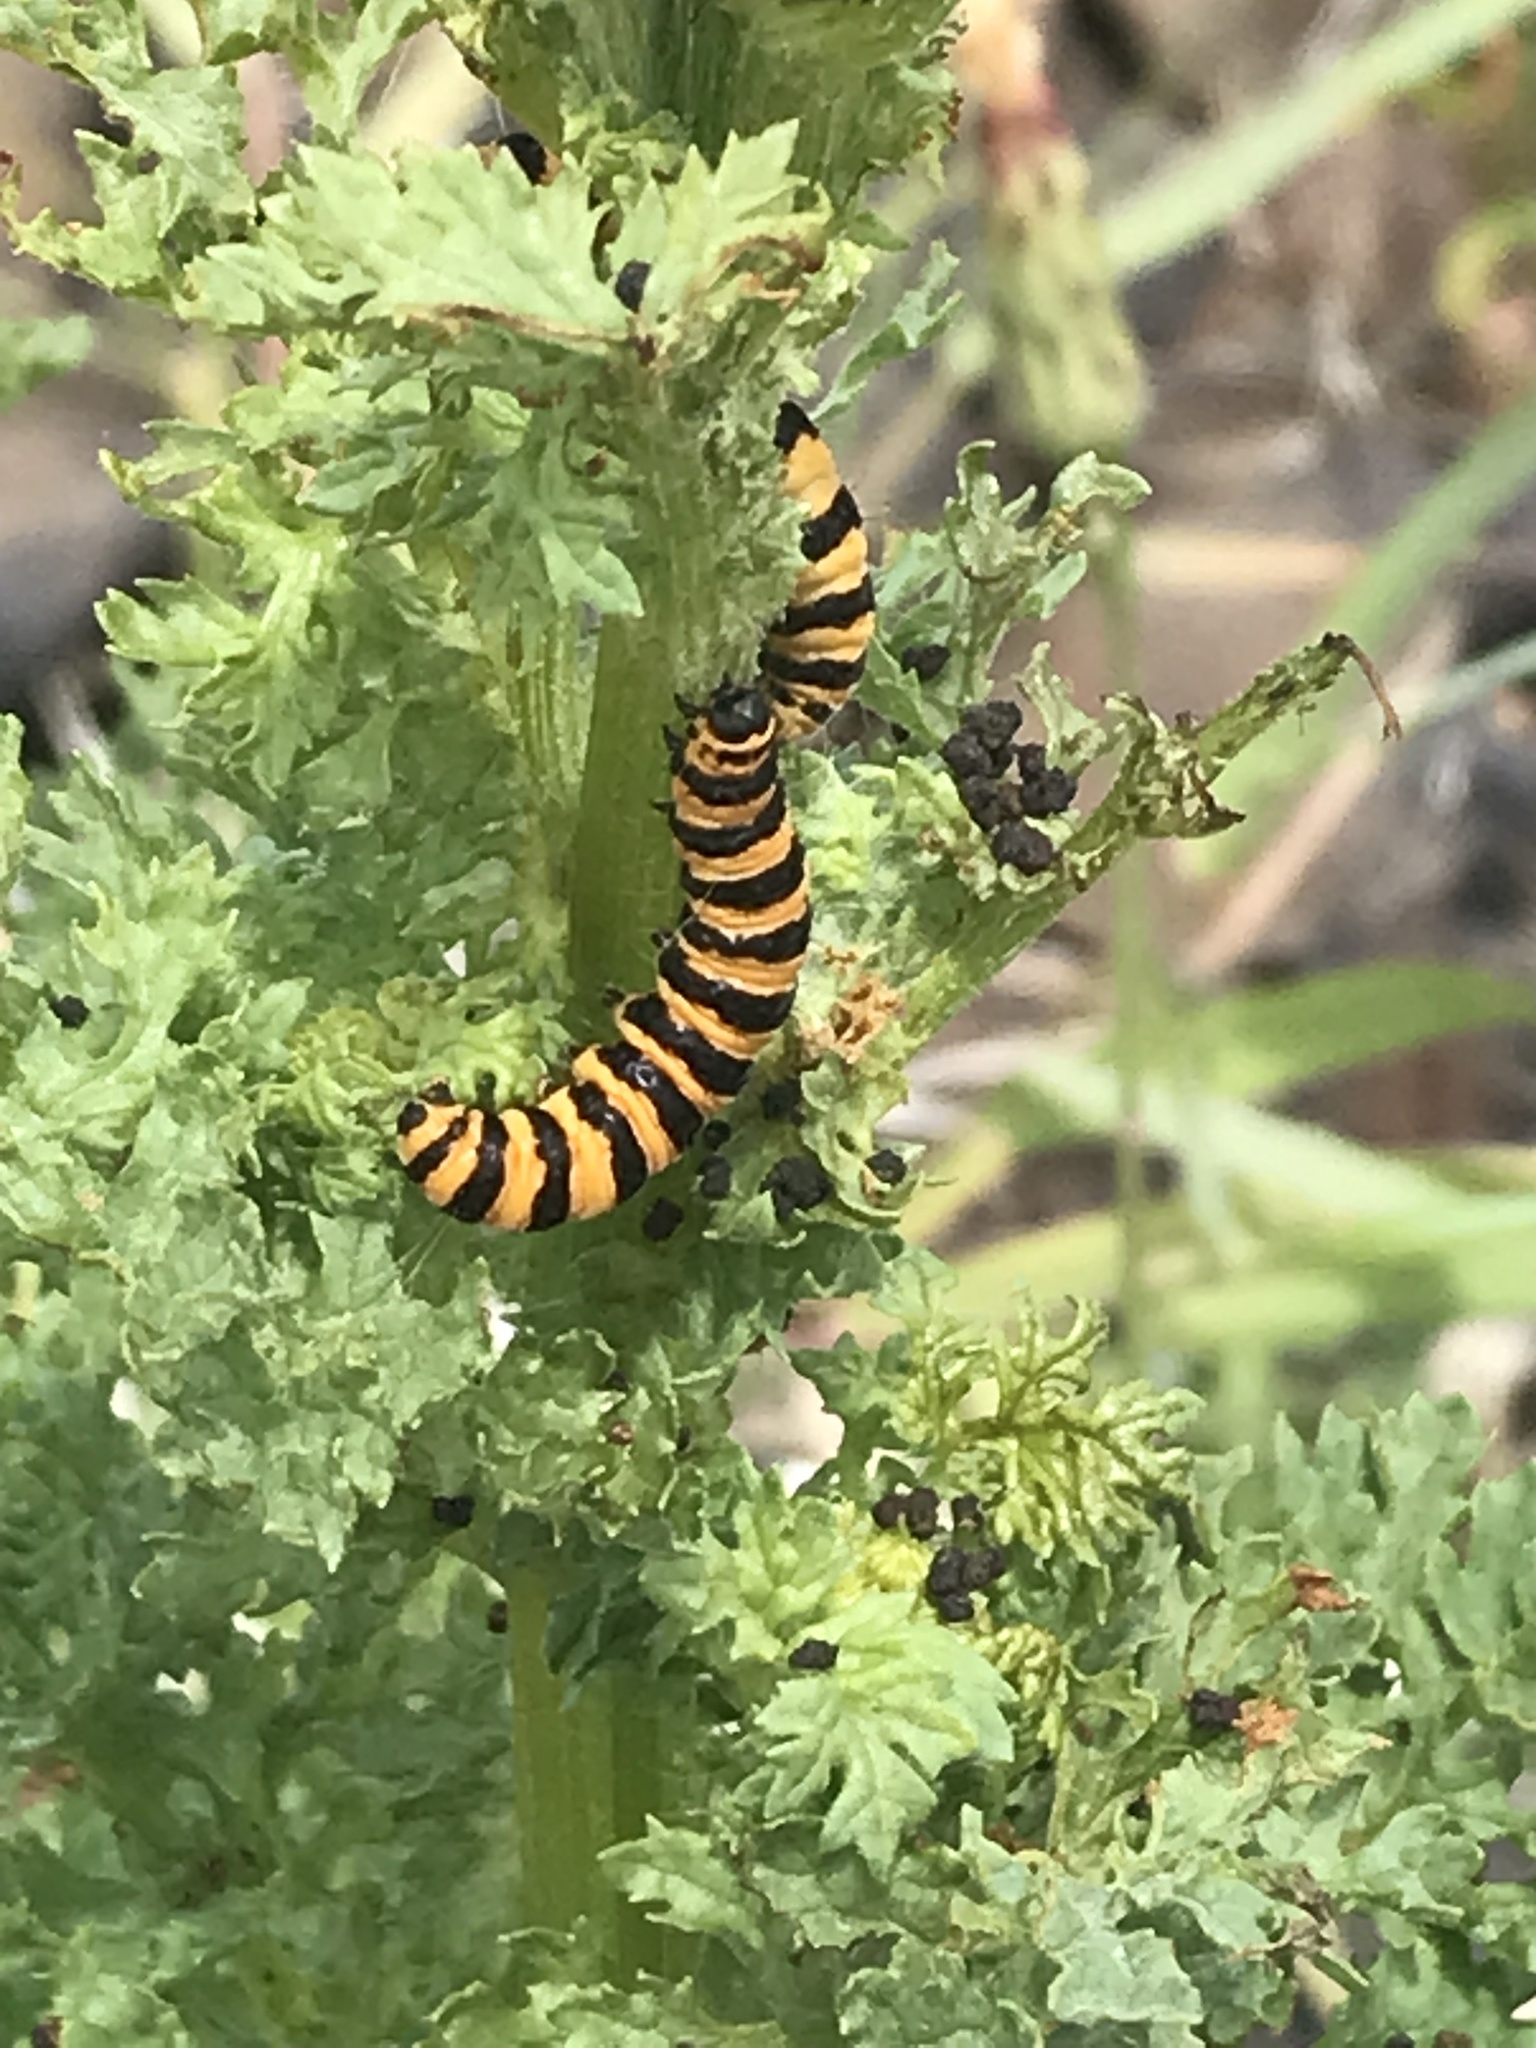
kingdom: Animalia
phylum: Arthropoda
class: Insecta
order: Lepidoptera
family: Erebidae
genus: Tyria
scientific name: Tyria jacobaeae
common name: Cinnabar
